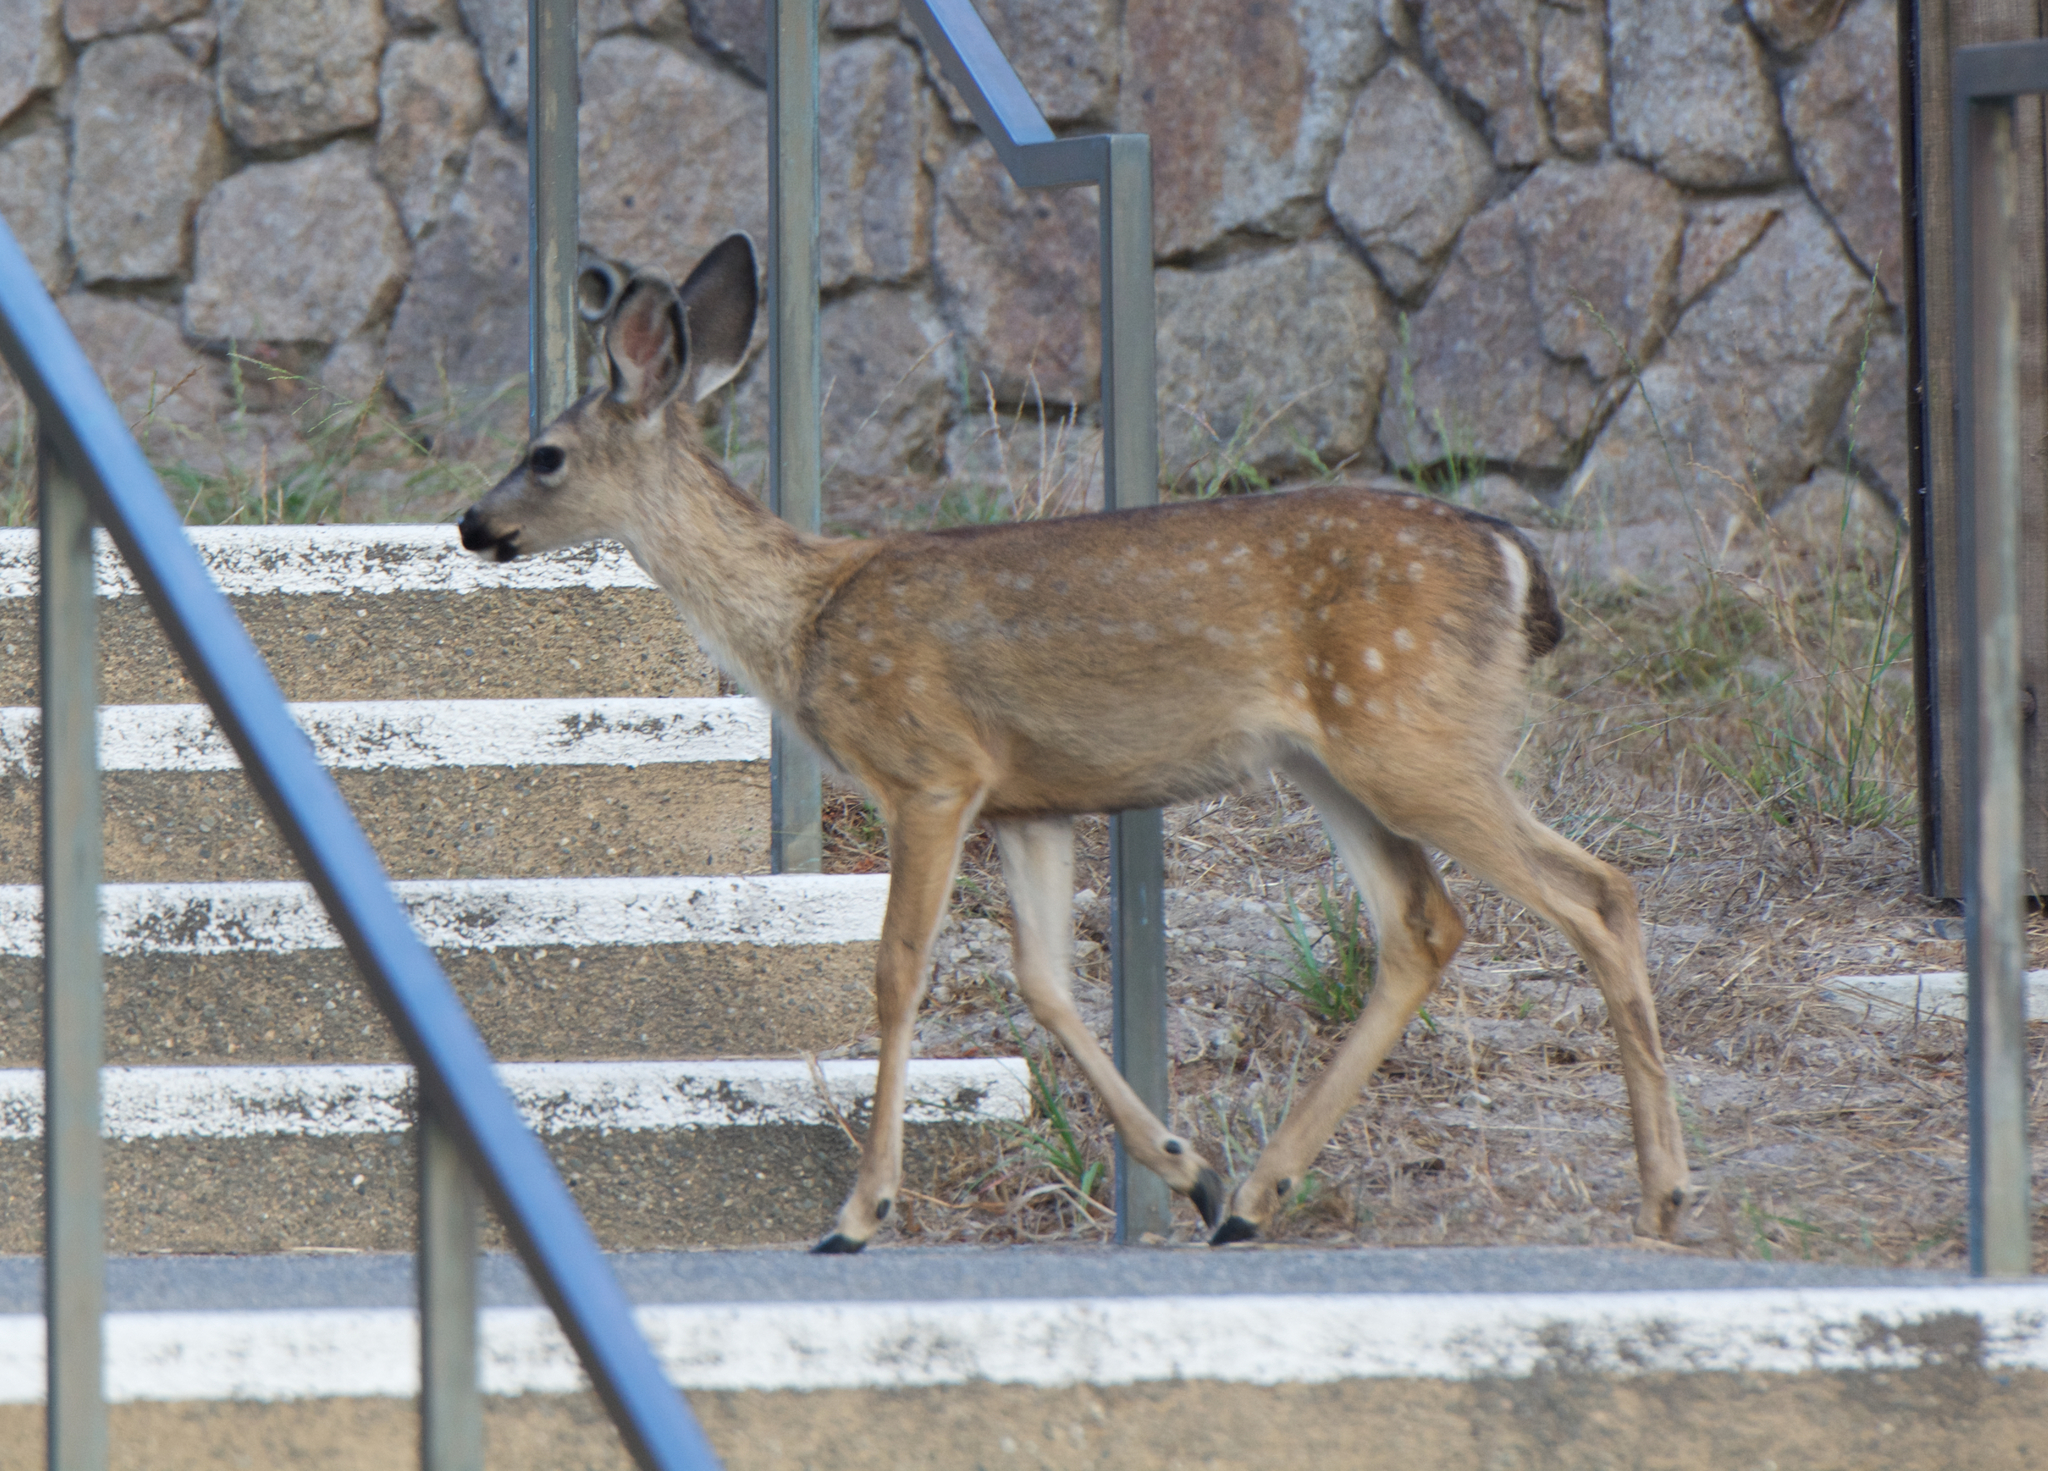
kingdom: Animalia
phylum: Chordata
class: Mammalia
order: Artiodactyla
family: Cervidae
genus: Odocoileus
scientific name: Odocoileus hemionus
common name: Mule deer
